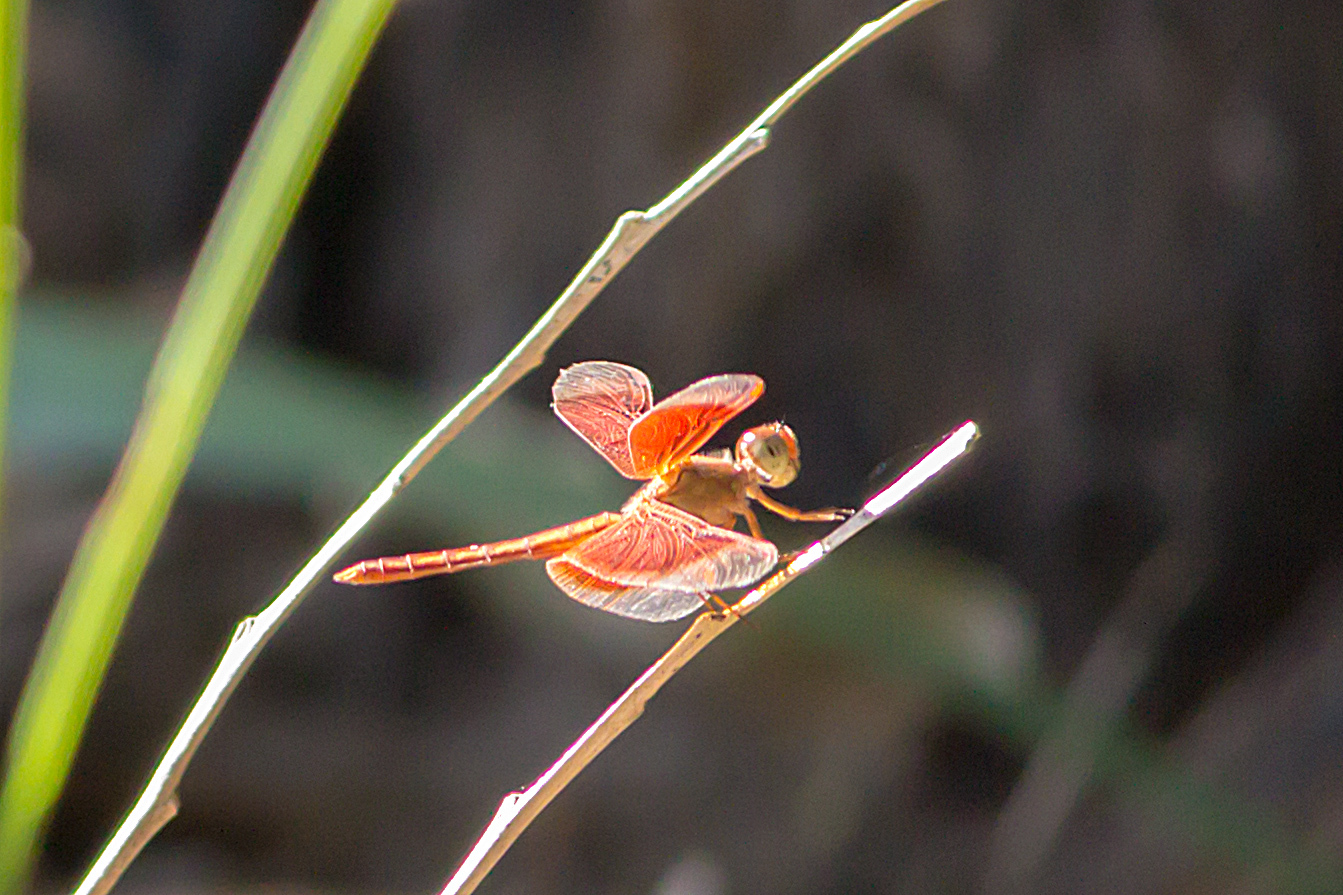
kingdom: Animalia
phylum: Arthropoda
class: Insecta
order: Odonata
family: Libellulidae
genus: Neurothemis
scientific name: Neurothemis stigmatizans
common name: Painted grasshawk
